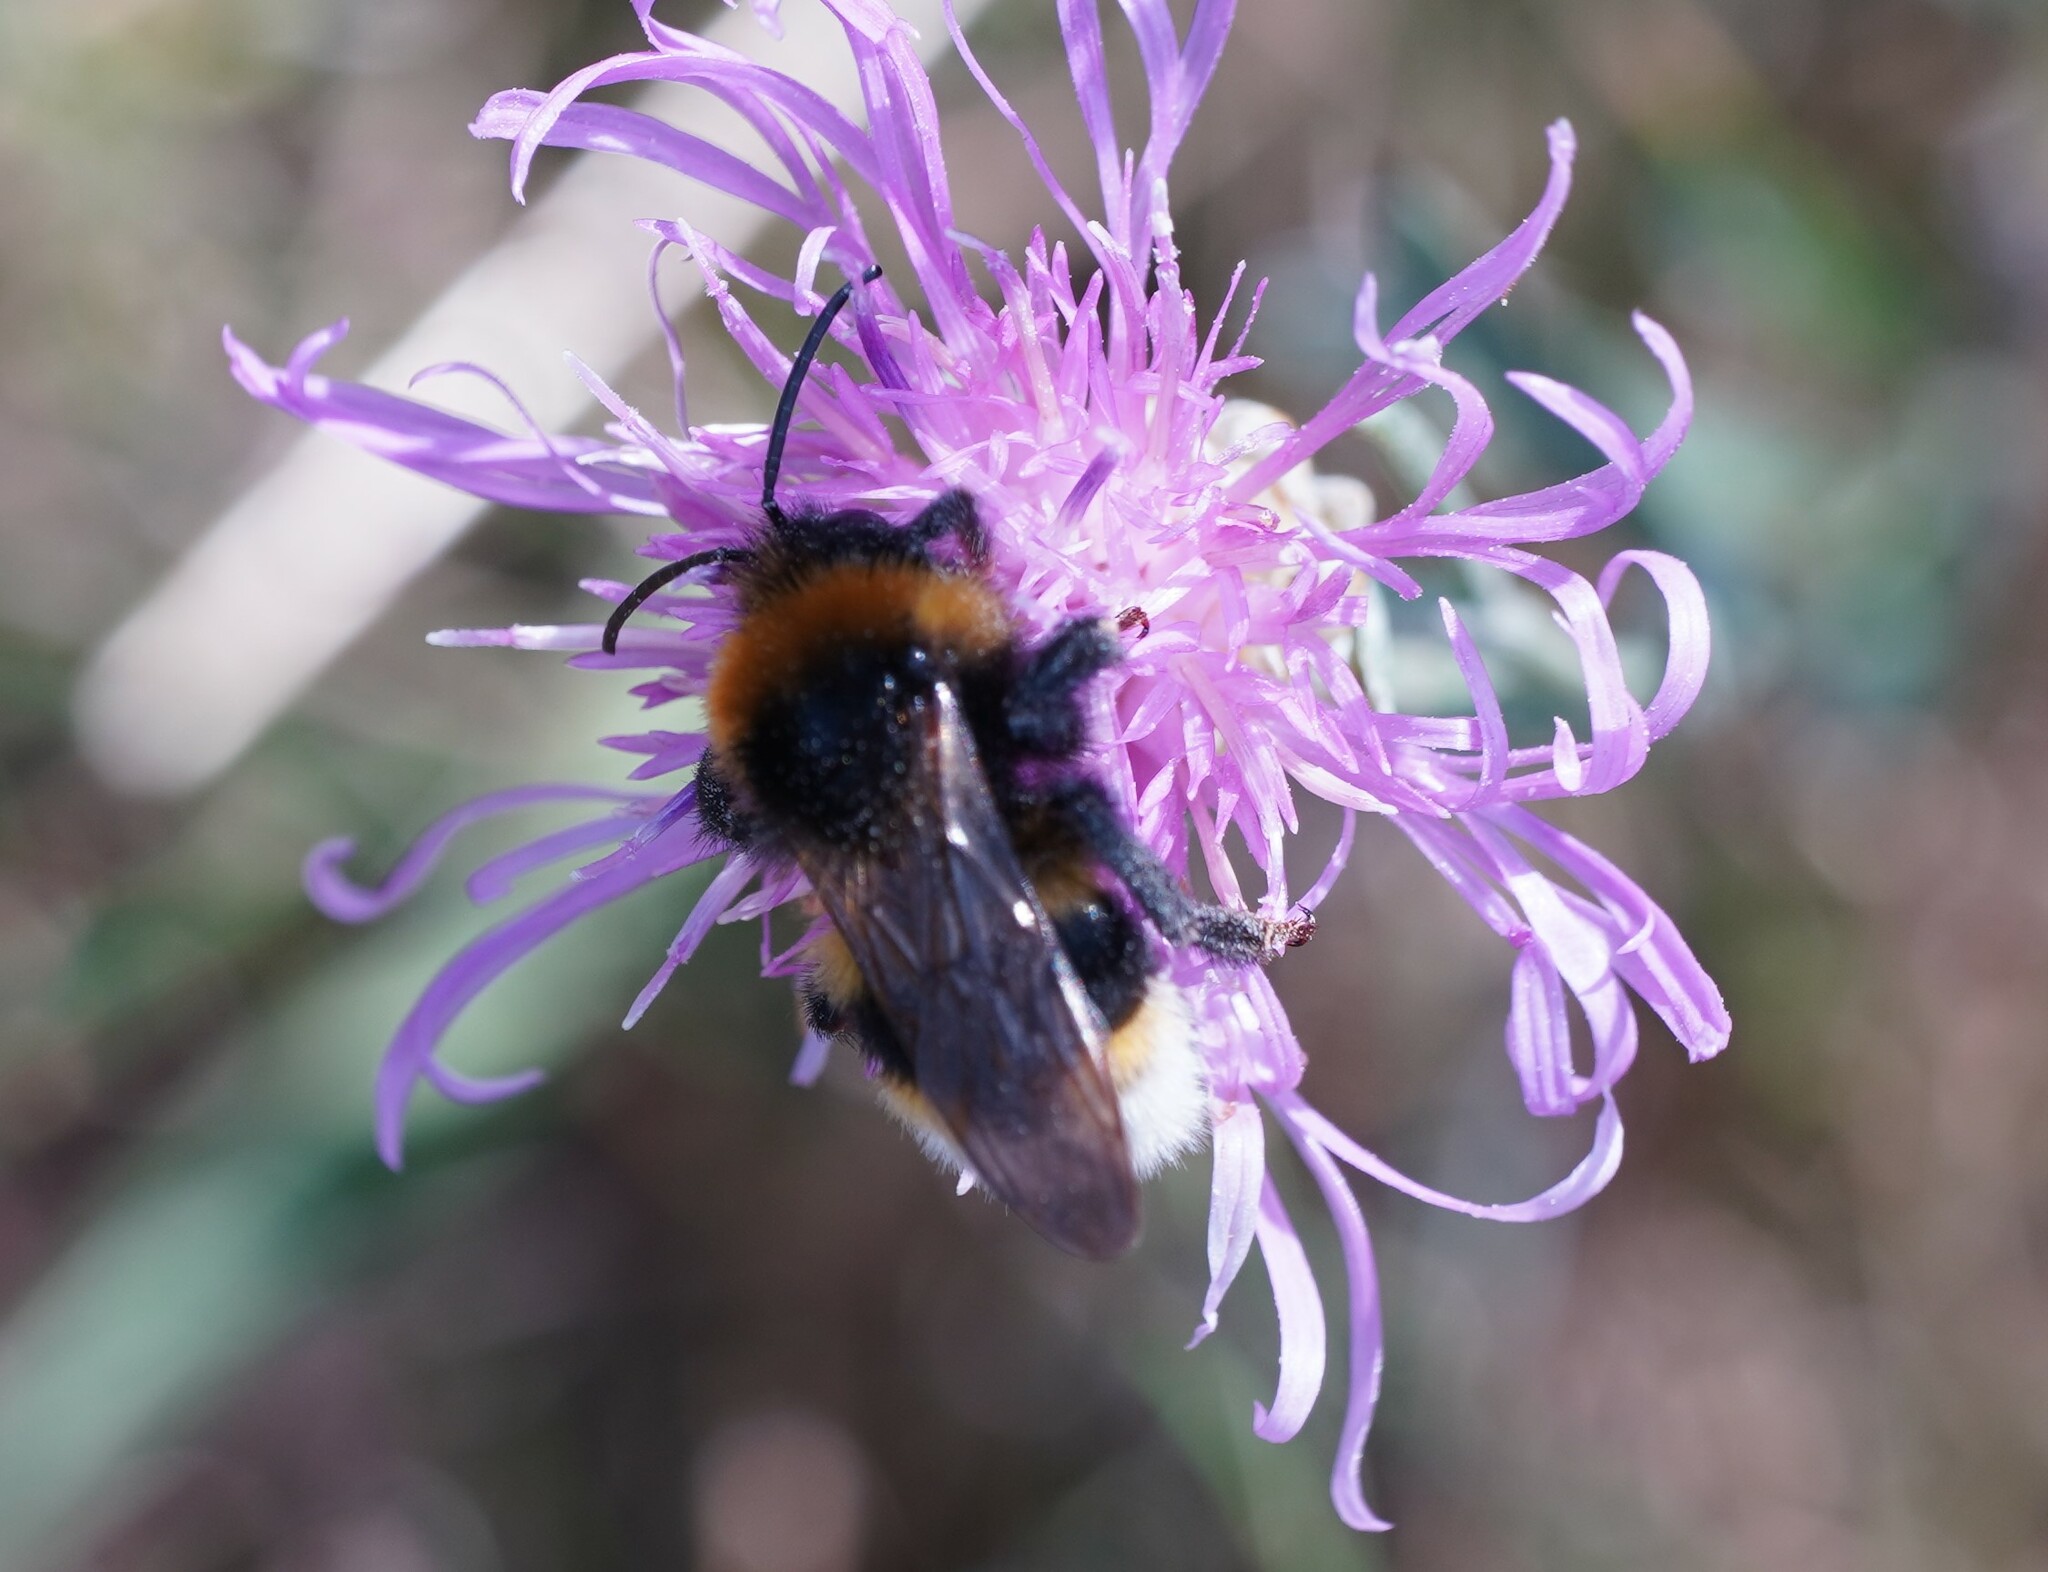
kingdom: Animalia
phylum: Arthropoda
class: Insecta
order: Hymenoptera
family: Apidae
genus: Bombus
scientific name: Bombus vestalis
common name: Vestal cuckoo bee
